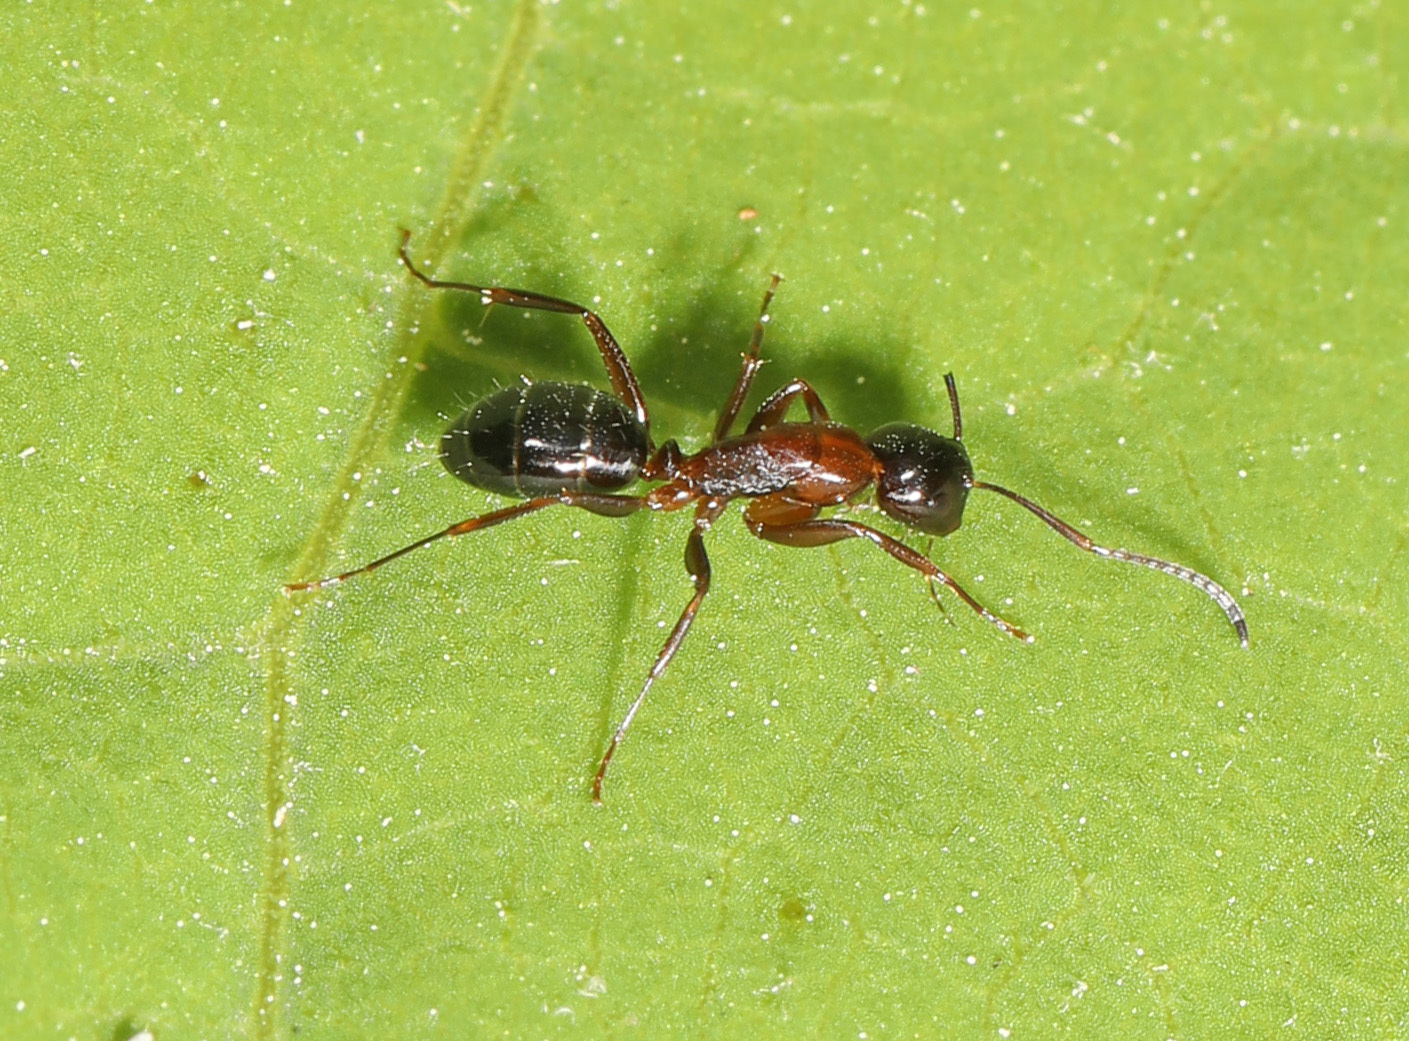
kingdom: Animalia
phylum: Arthropoda
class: Insecta
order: Hymenoptera
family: Formicidae
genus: Camponotus
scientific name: Camponotus nearcticus
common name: Smaller carpenter ant
